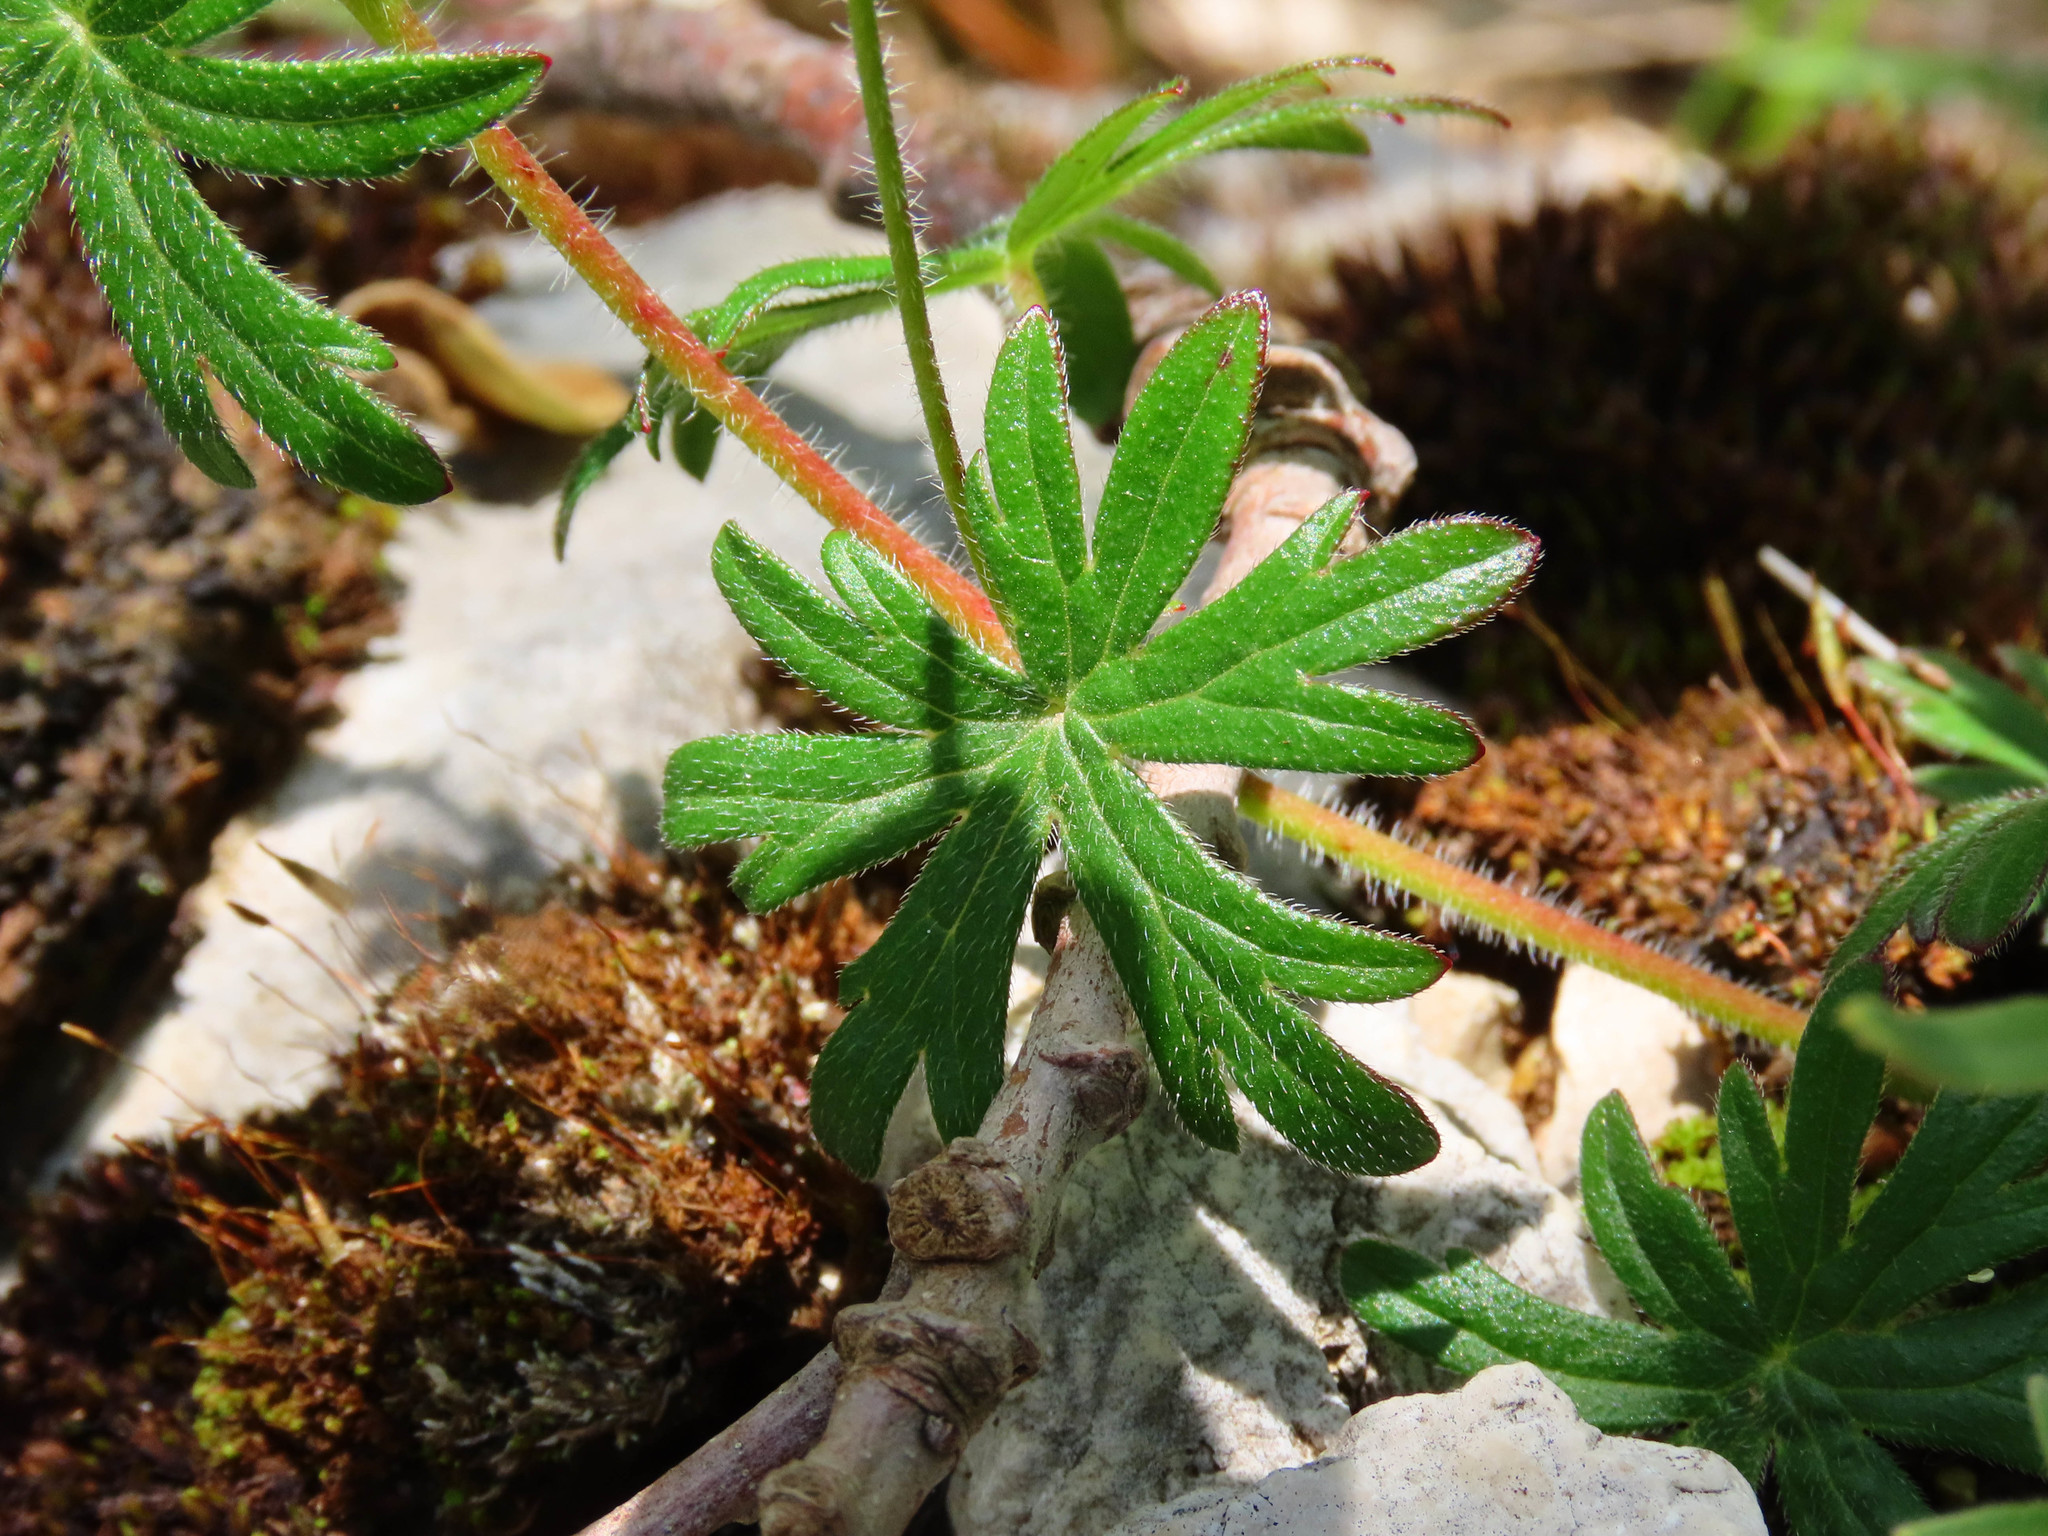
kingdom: Plantae
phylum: Tracheophyta
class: Magnoliopsida
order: Geraniales
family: Geraniaceae
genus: Geranium
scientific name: Geranium sanguineum
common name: Bloody crane's-bill
